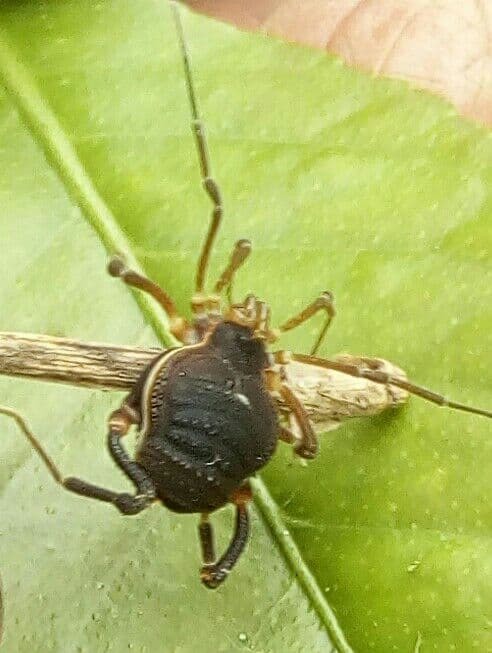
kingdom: Animalia
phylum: Arthropoda
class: Arachnida
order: Opiliones
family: Gonyleptidae
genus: Acanthopachylus
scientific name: Acanthopachylus robustus
